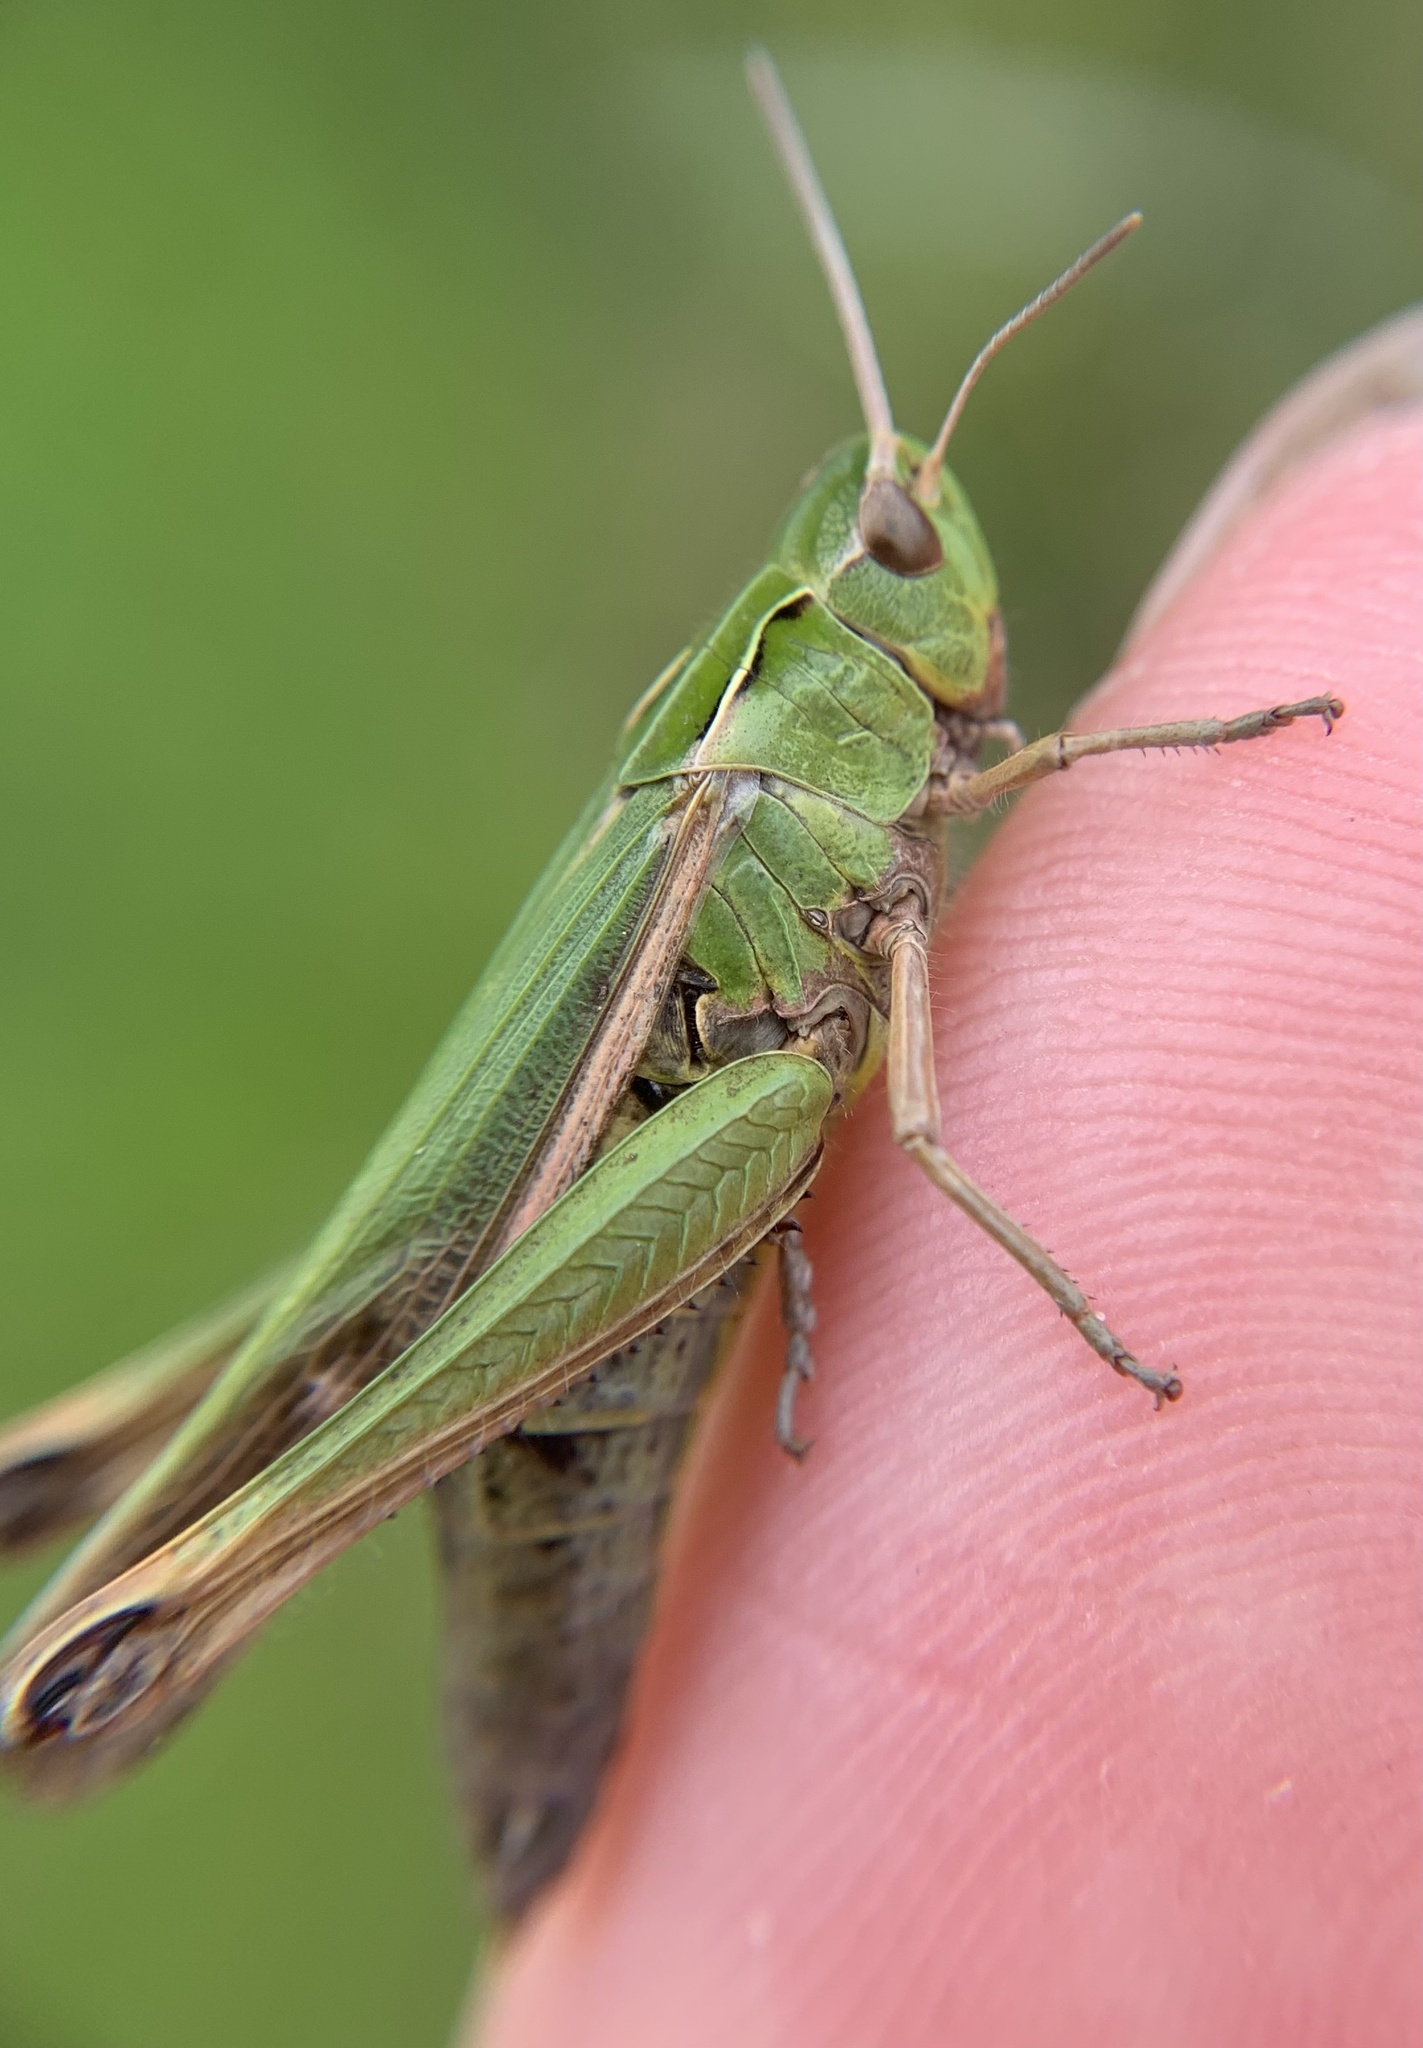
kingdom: Animalia
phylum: Arthropoda
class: Insecta
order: Orthoptera
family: Acrididae
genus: Omocestus
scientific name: Omocestus viridulus
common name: Common green grasshopper
